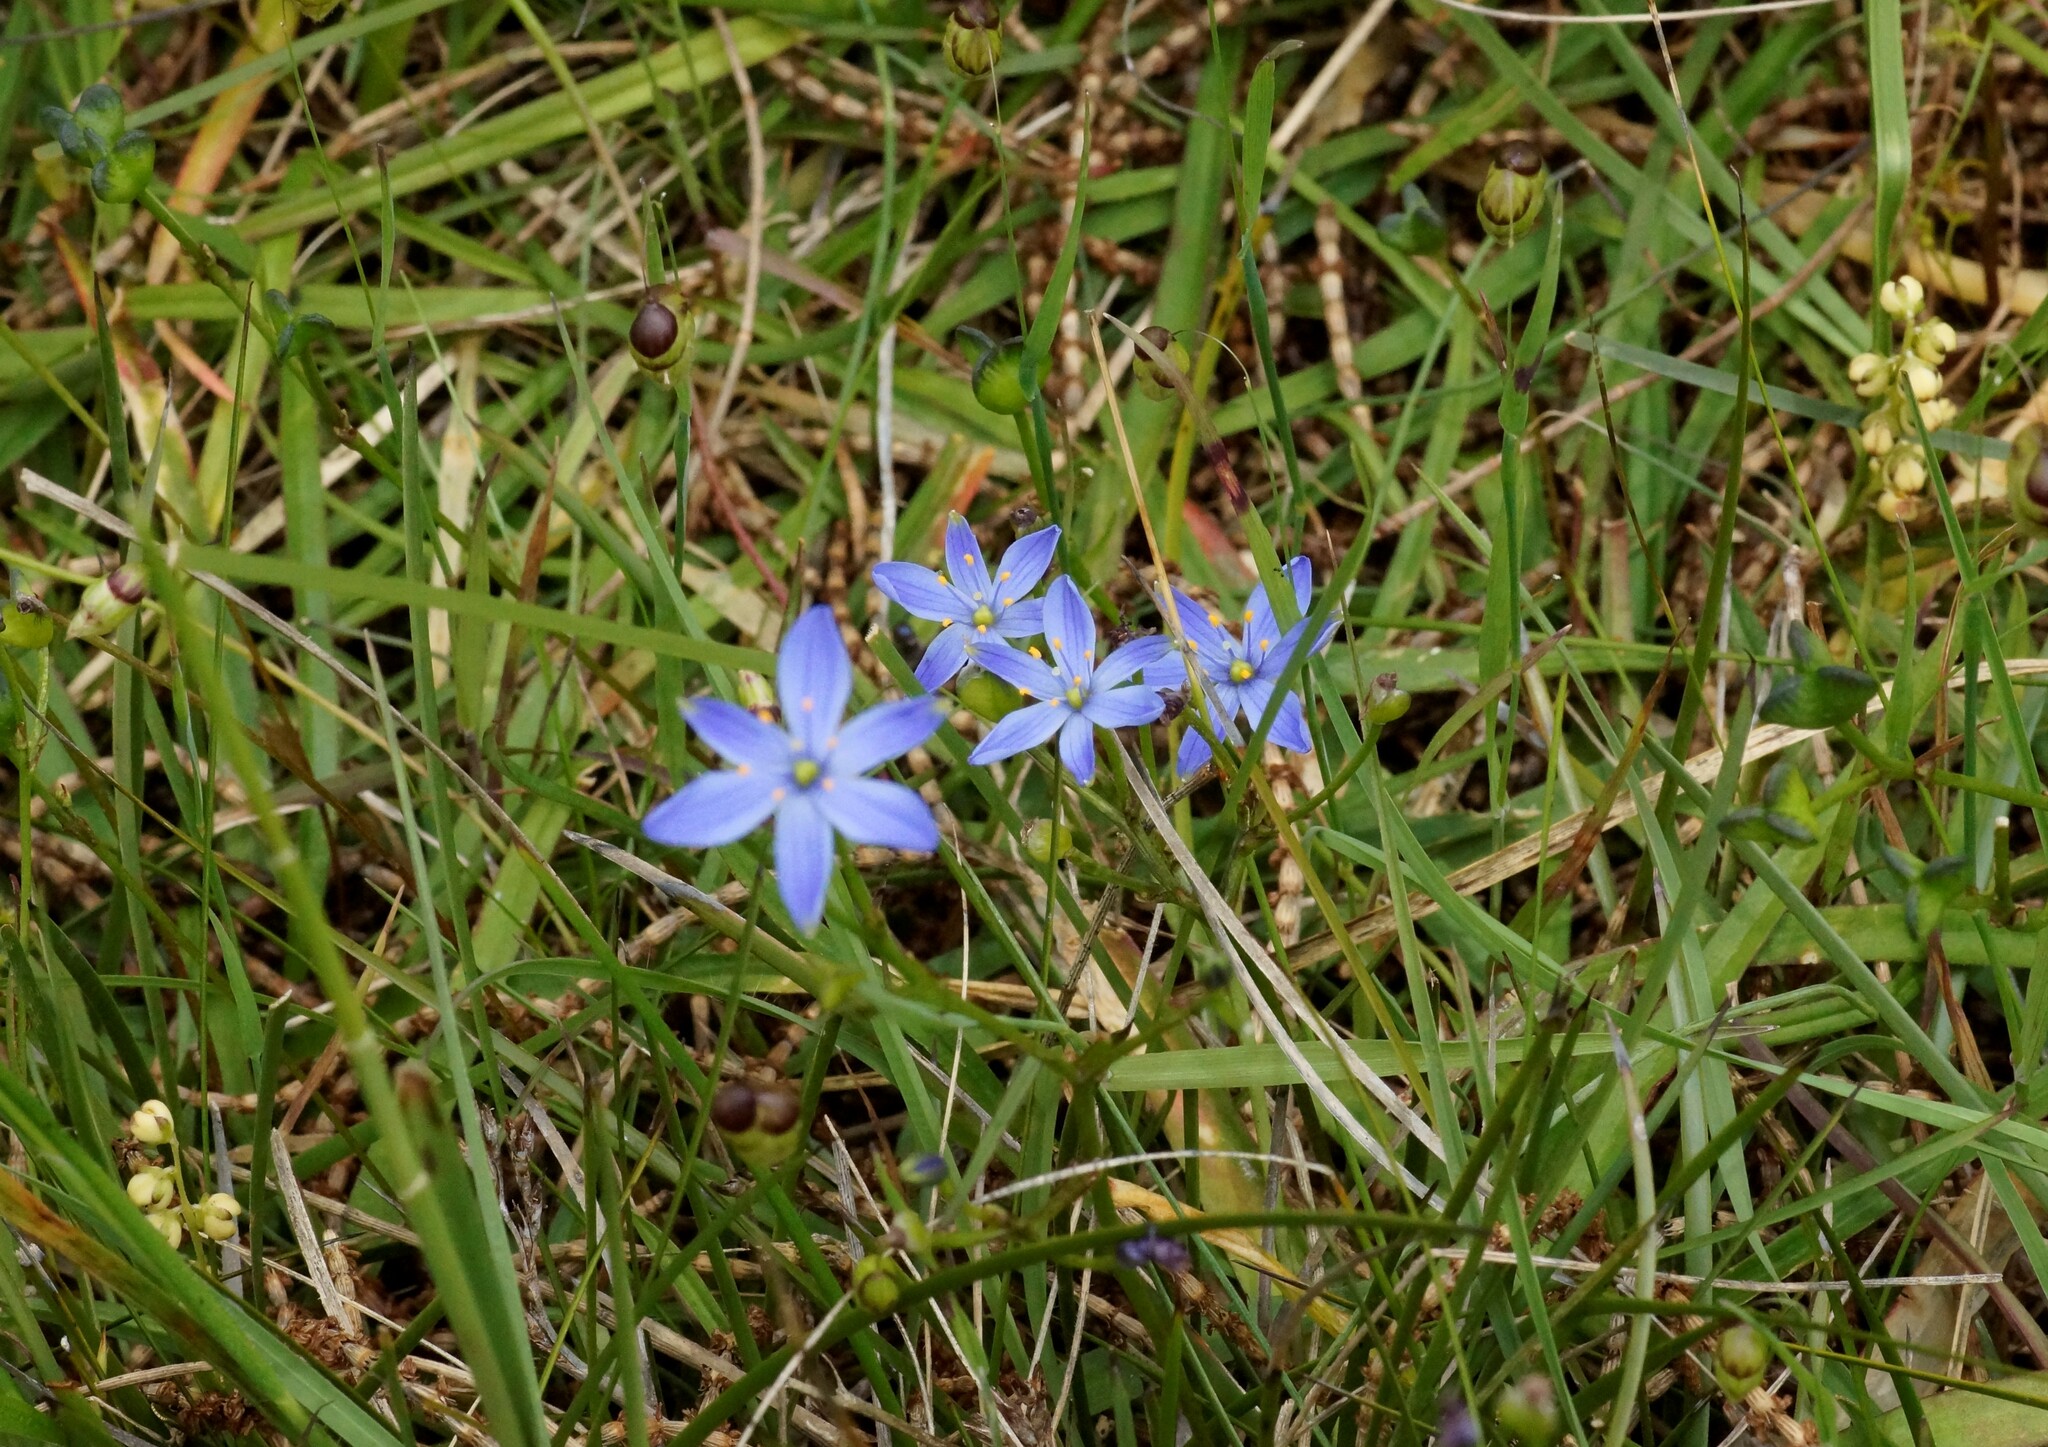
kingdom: Plantae
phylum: Tracheophyta
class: Liliopsida
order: Asparagales
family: Asphodelaceae
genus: Chamaescilla
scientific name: Chamaescilla corymbosa
